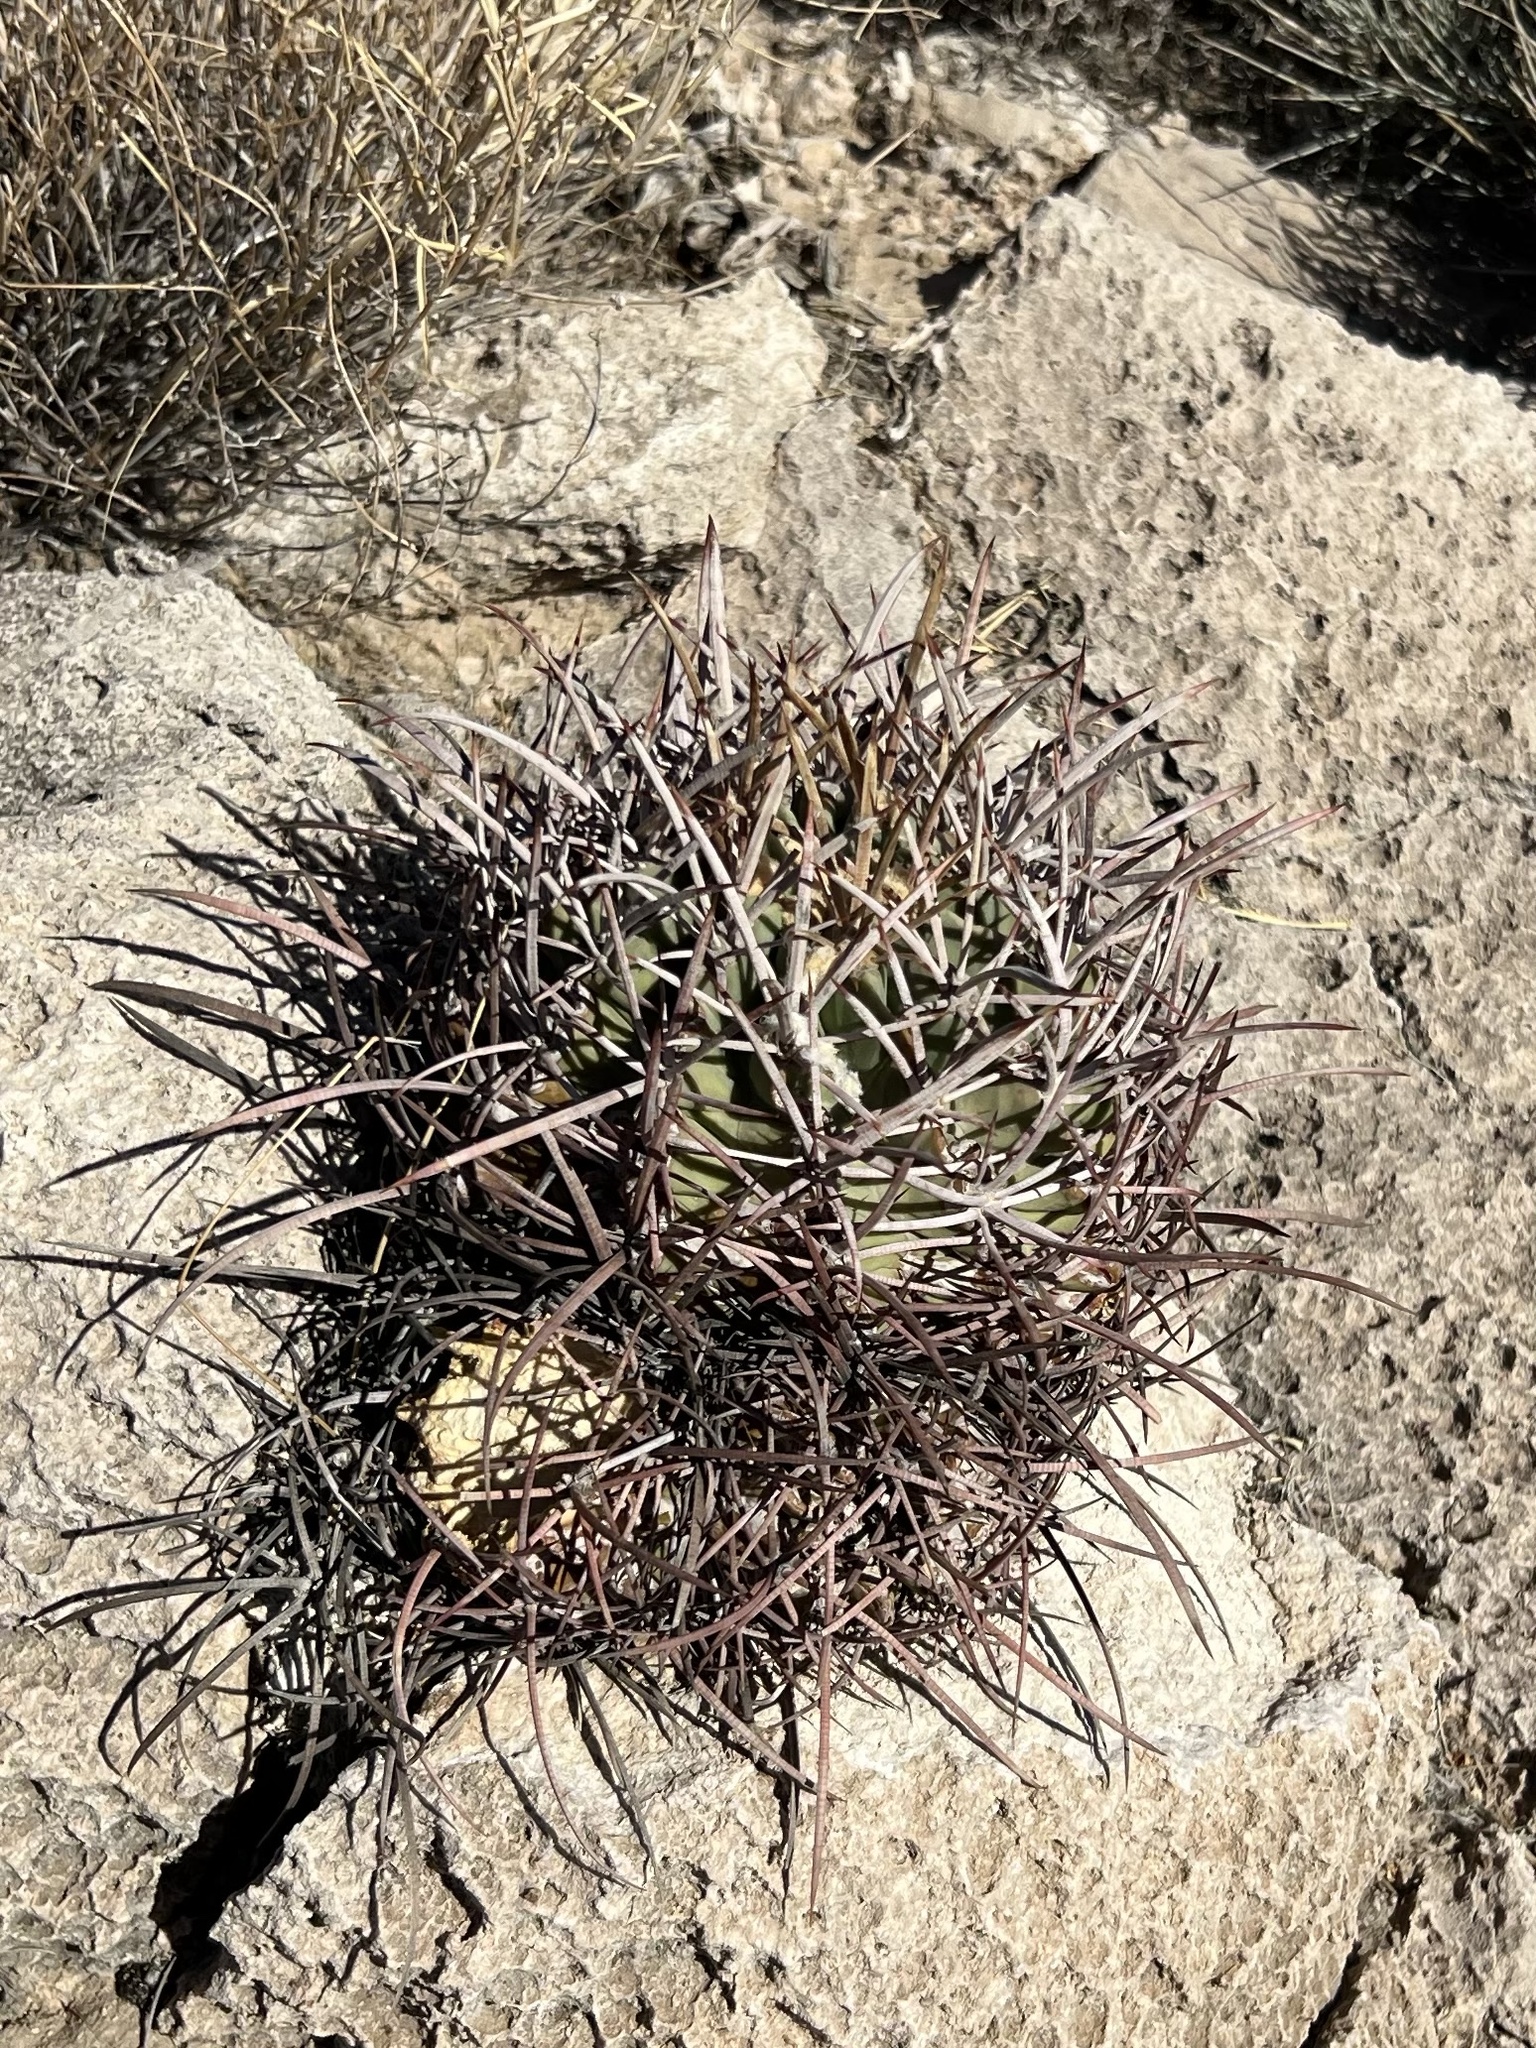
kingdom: Plantae
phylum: Tracheophyta
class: Magnoliopsida
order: Caryophyllales
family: Cactaceae
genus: Echinocactus
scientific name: Echinocactus polycephalus
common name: Cottontop cactus
